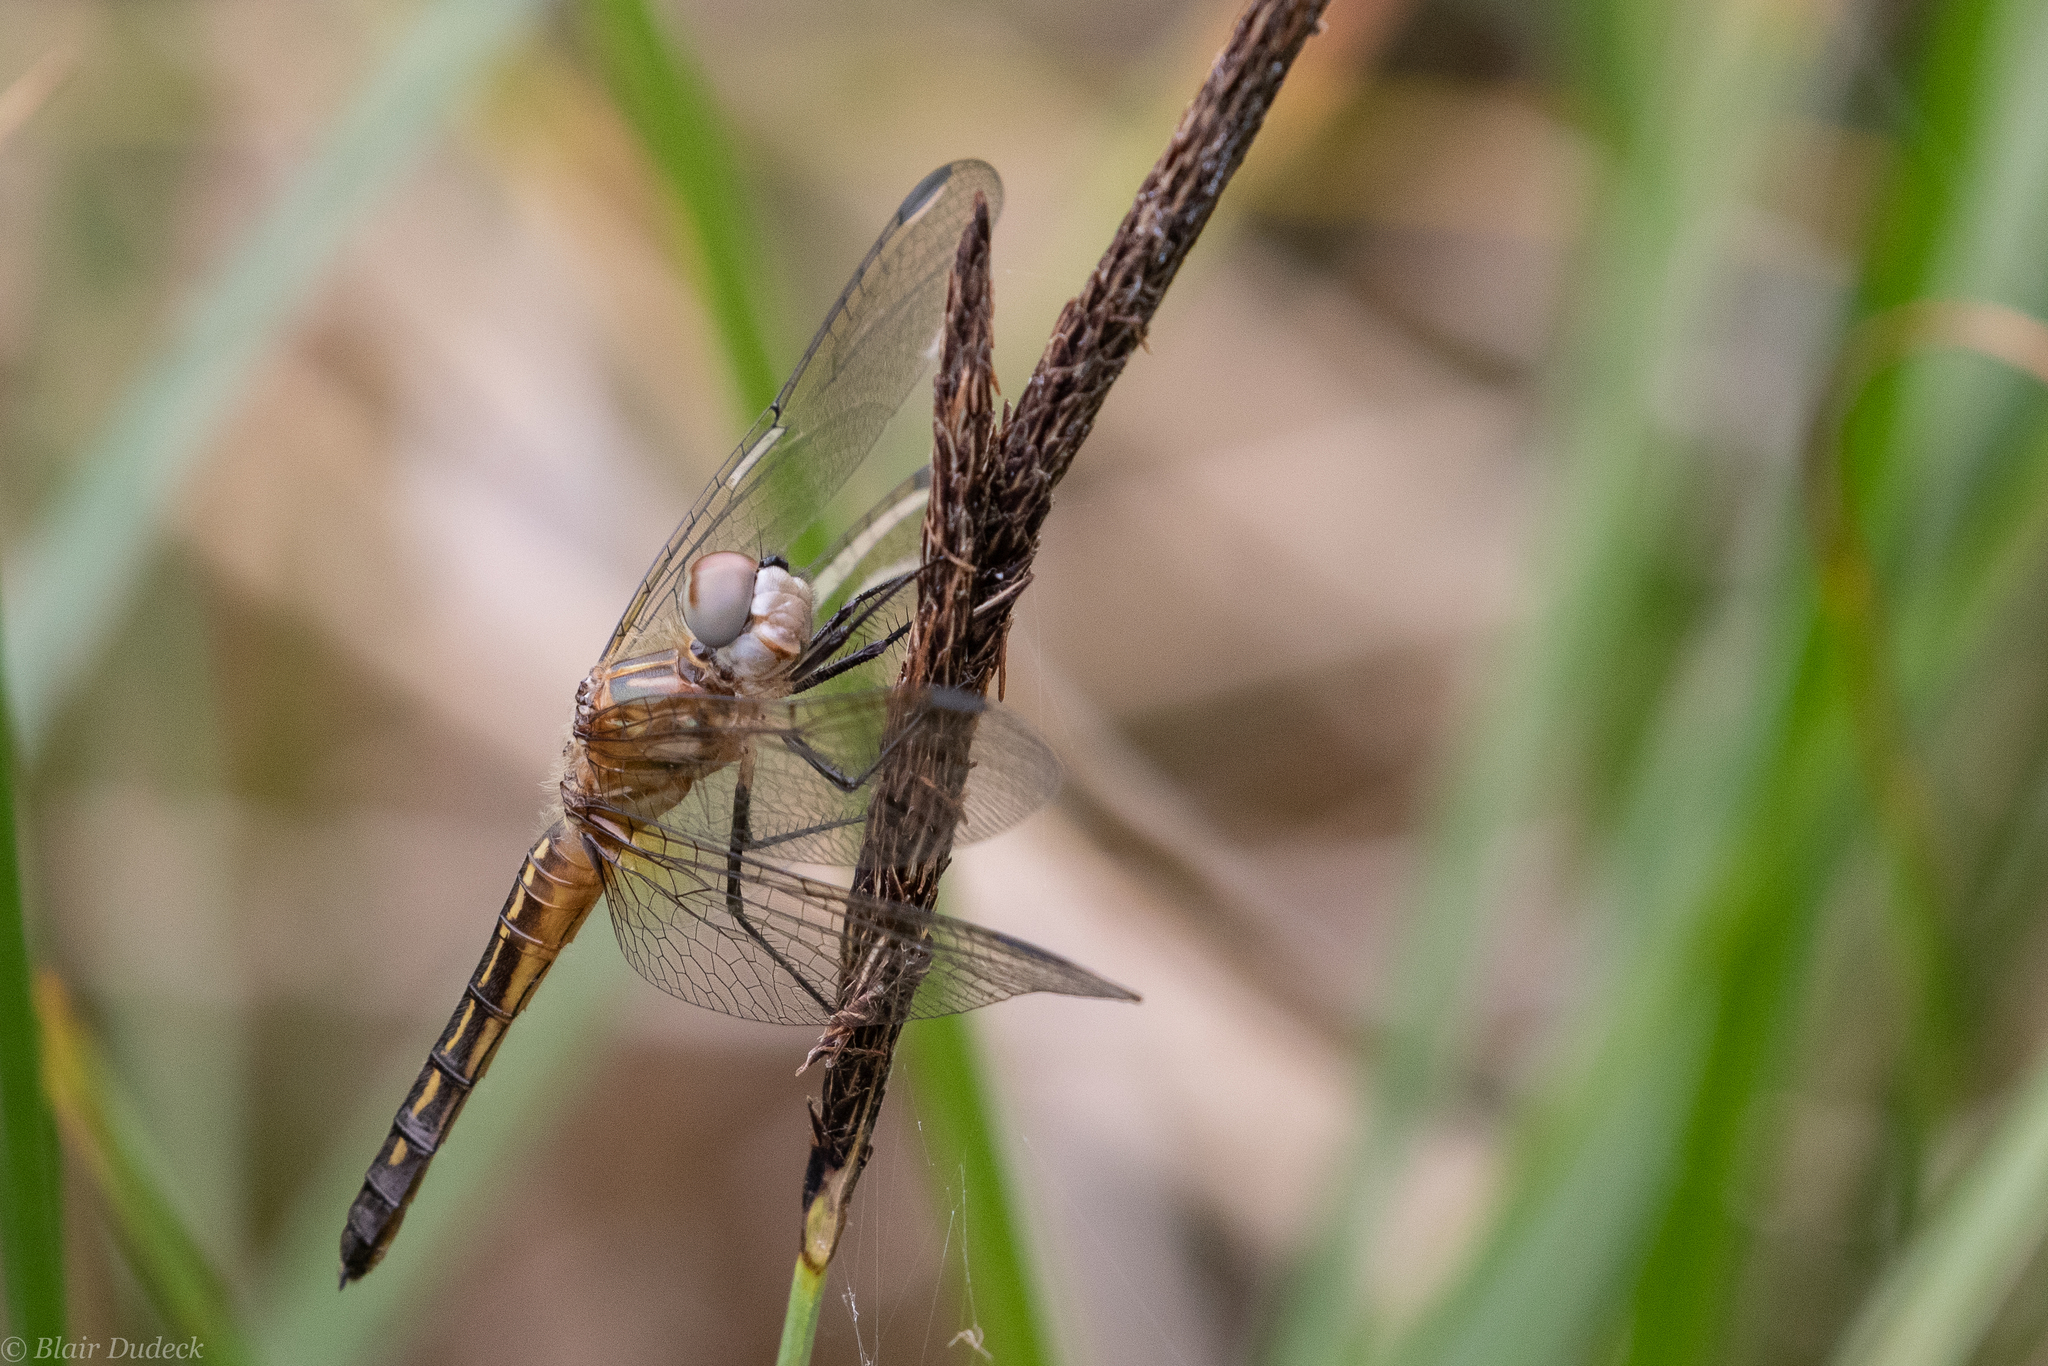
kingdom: Animalia
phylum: Arthropoda
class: Insecta
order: Odonata
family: Libellulidae
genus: Pachydiplax
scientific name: Pachydiplax longipennis
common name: Blue dasher
